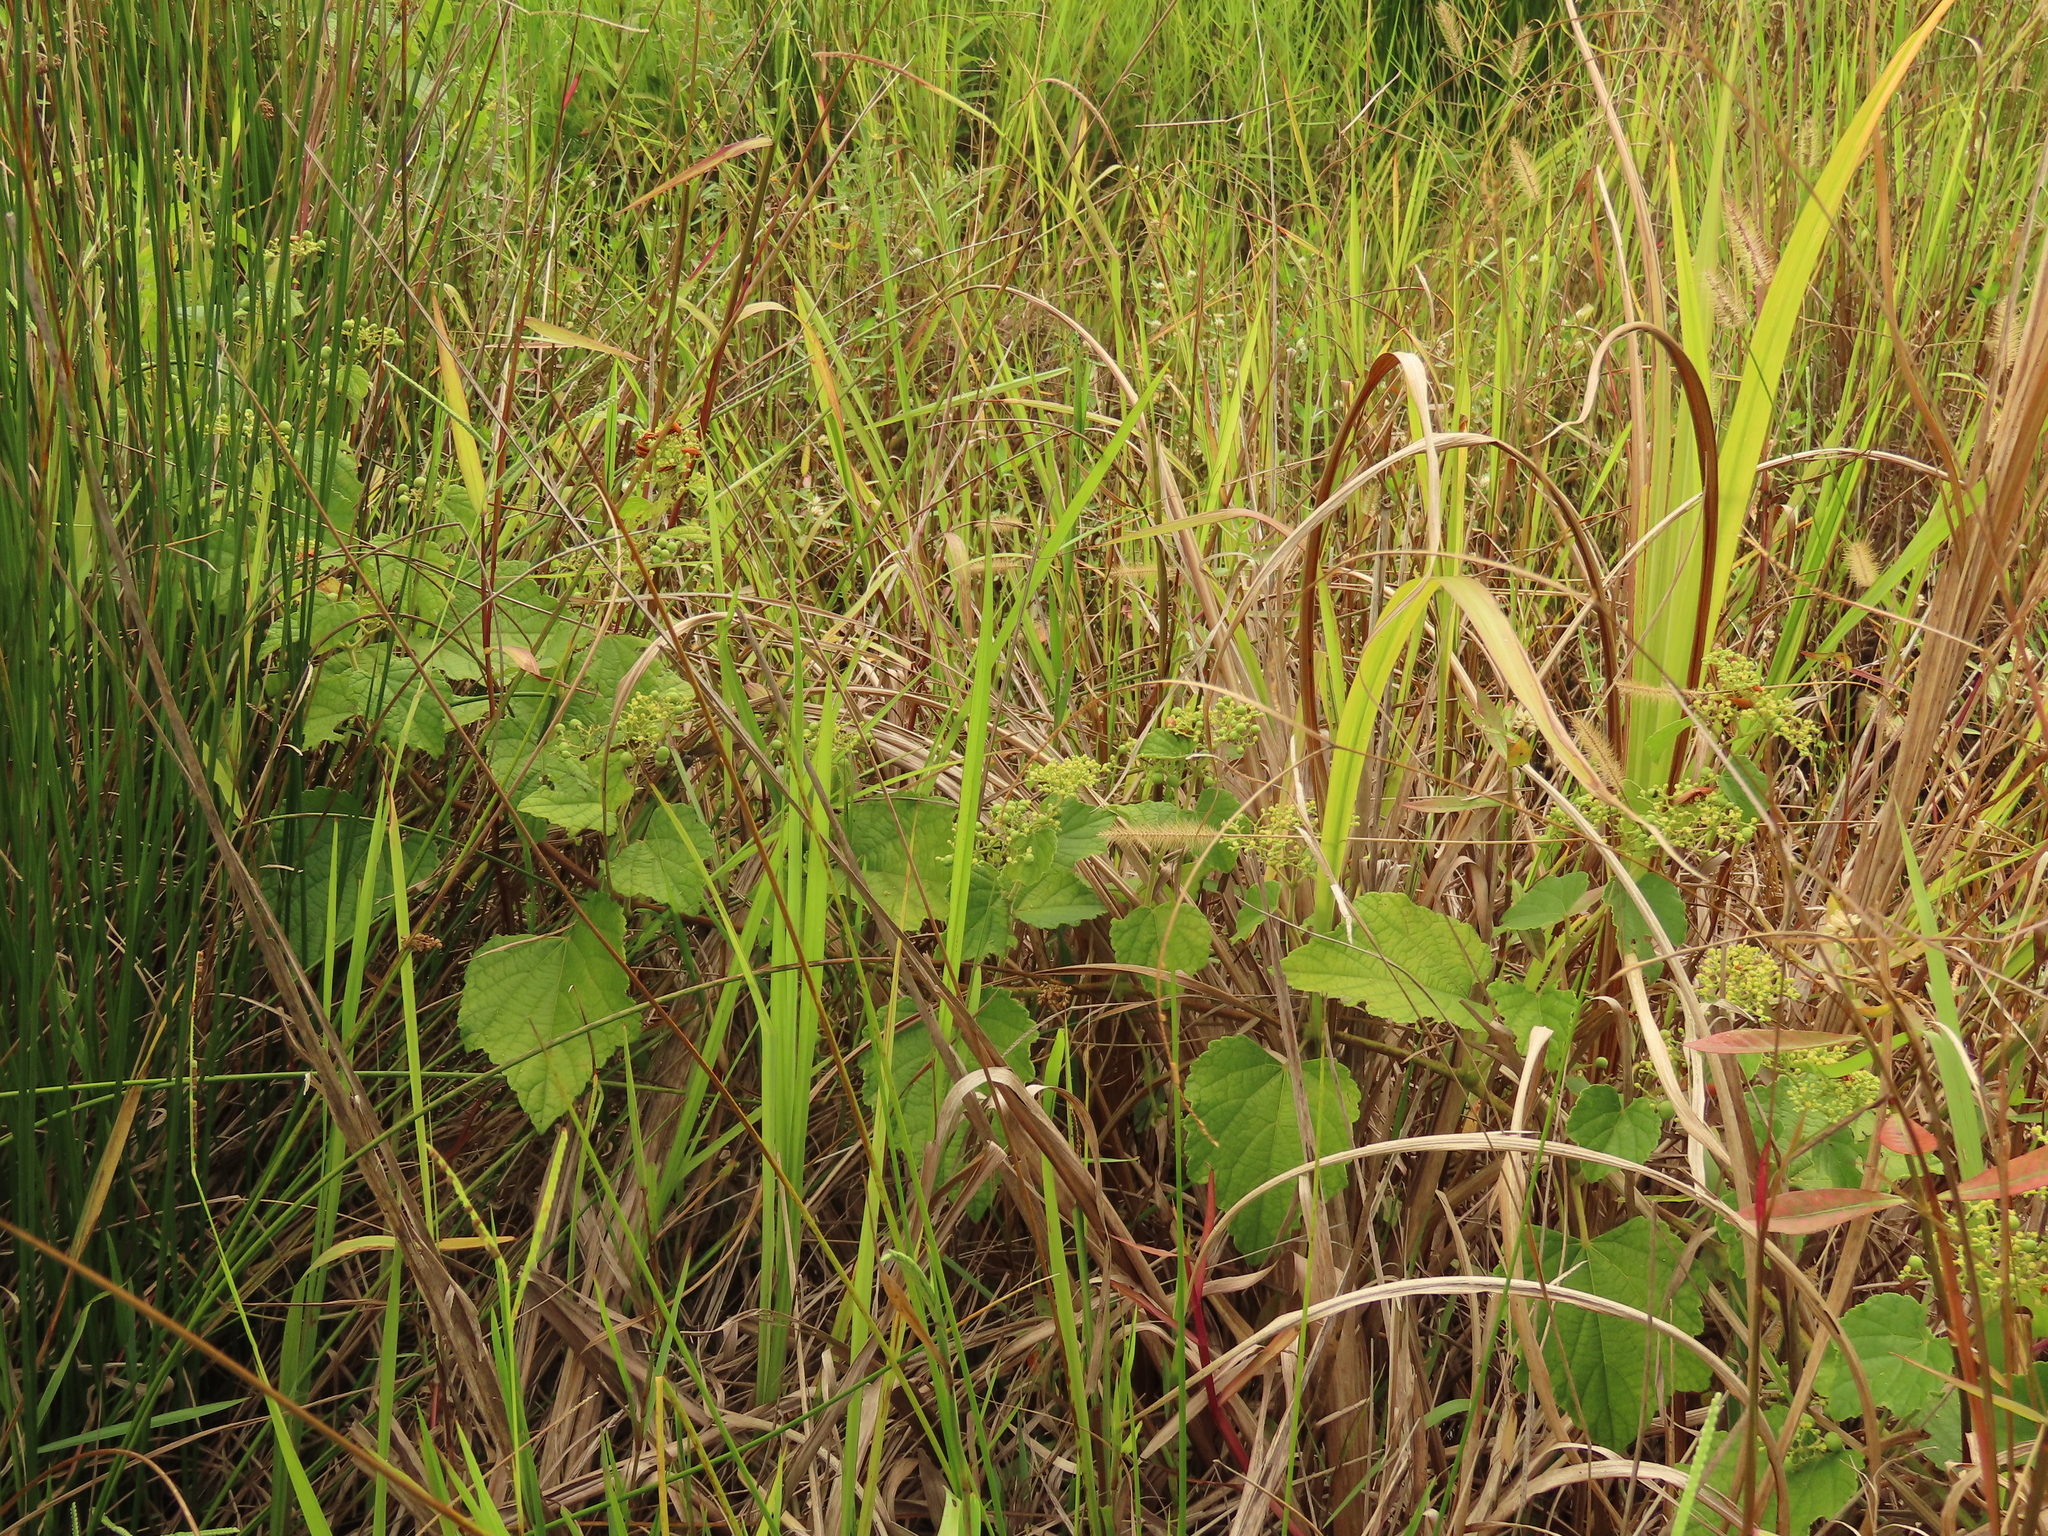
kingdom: Plantae
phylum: Tracheophyta
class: Magnoliopsida
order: Vitales
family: Vitaceae
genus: Ampelopsis
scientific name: Ampelopsis glandulosa
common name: Amur peppervine
